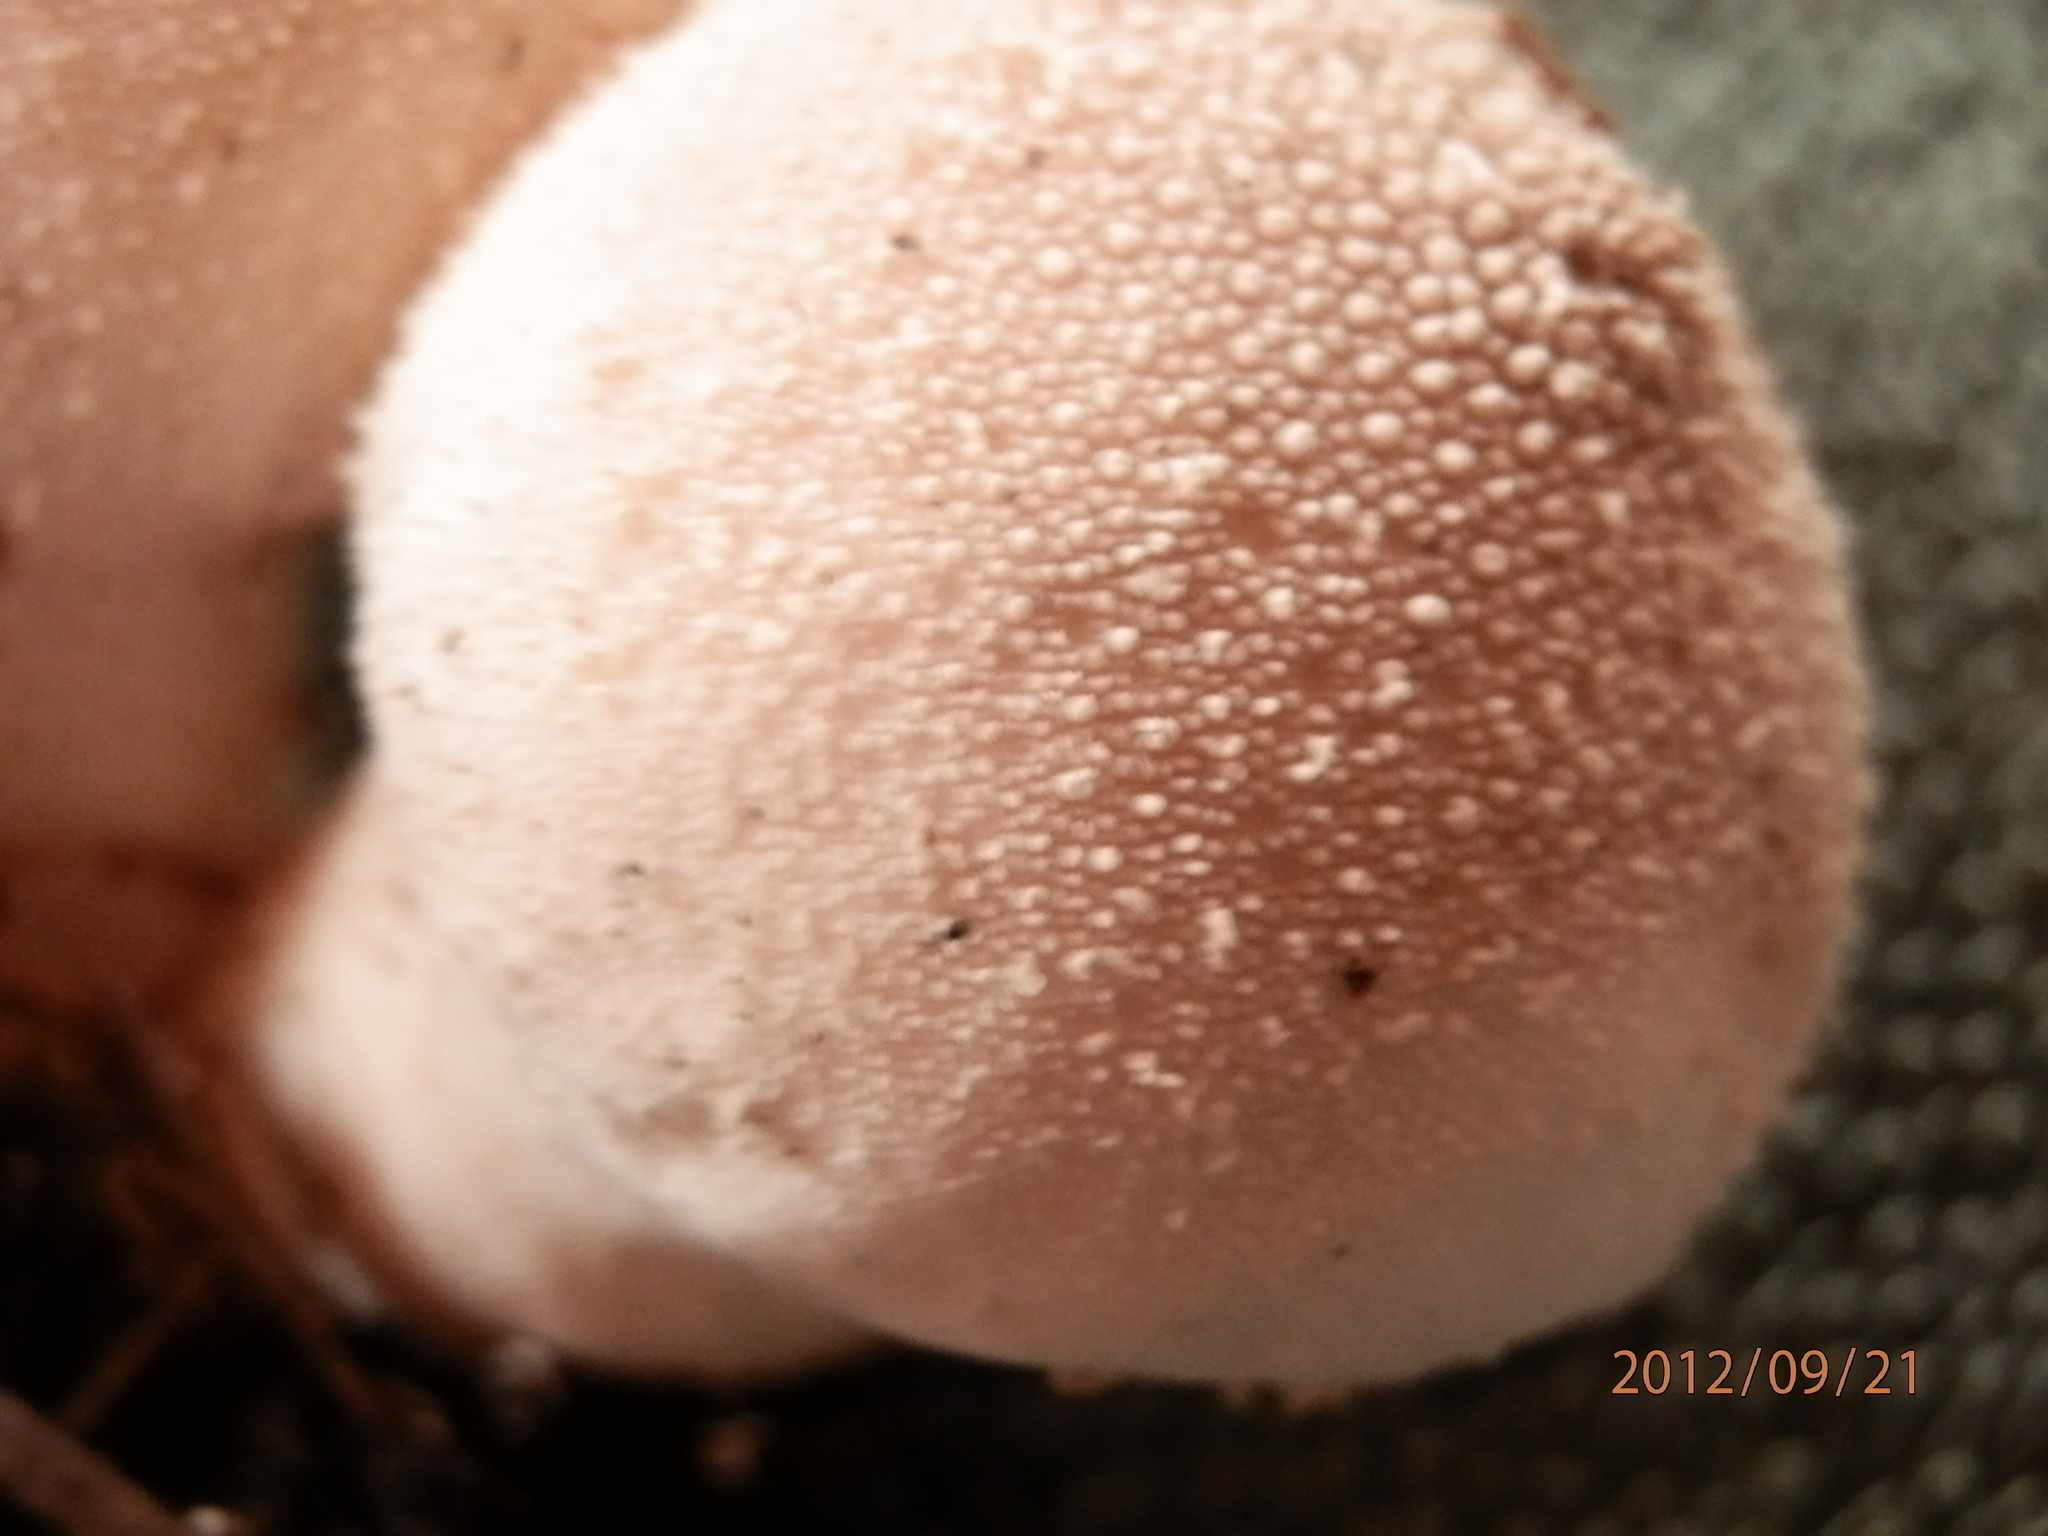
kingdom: Fungi
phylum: Basidiomycota
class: Agaricomycetes
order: Agaricales
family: Lycoperdaceae
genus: Lycoperdon
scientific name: Lycoperdon perlatum
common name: Common puffball
